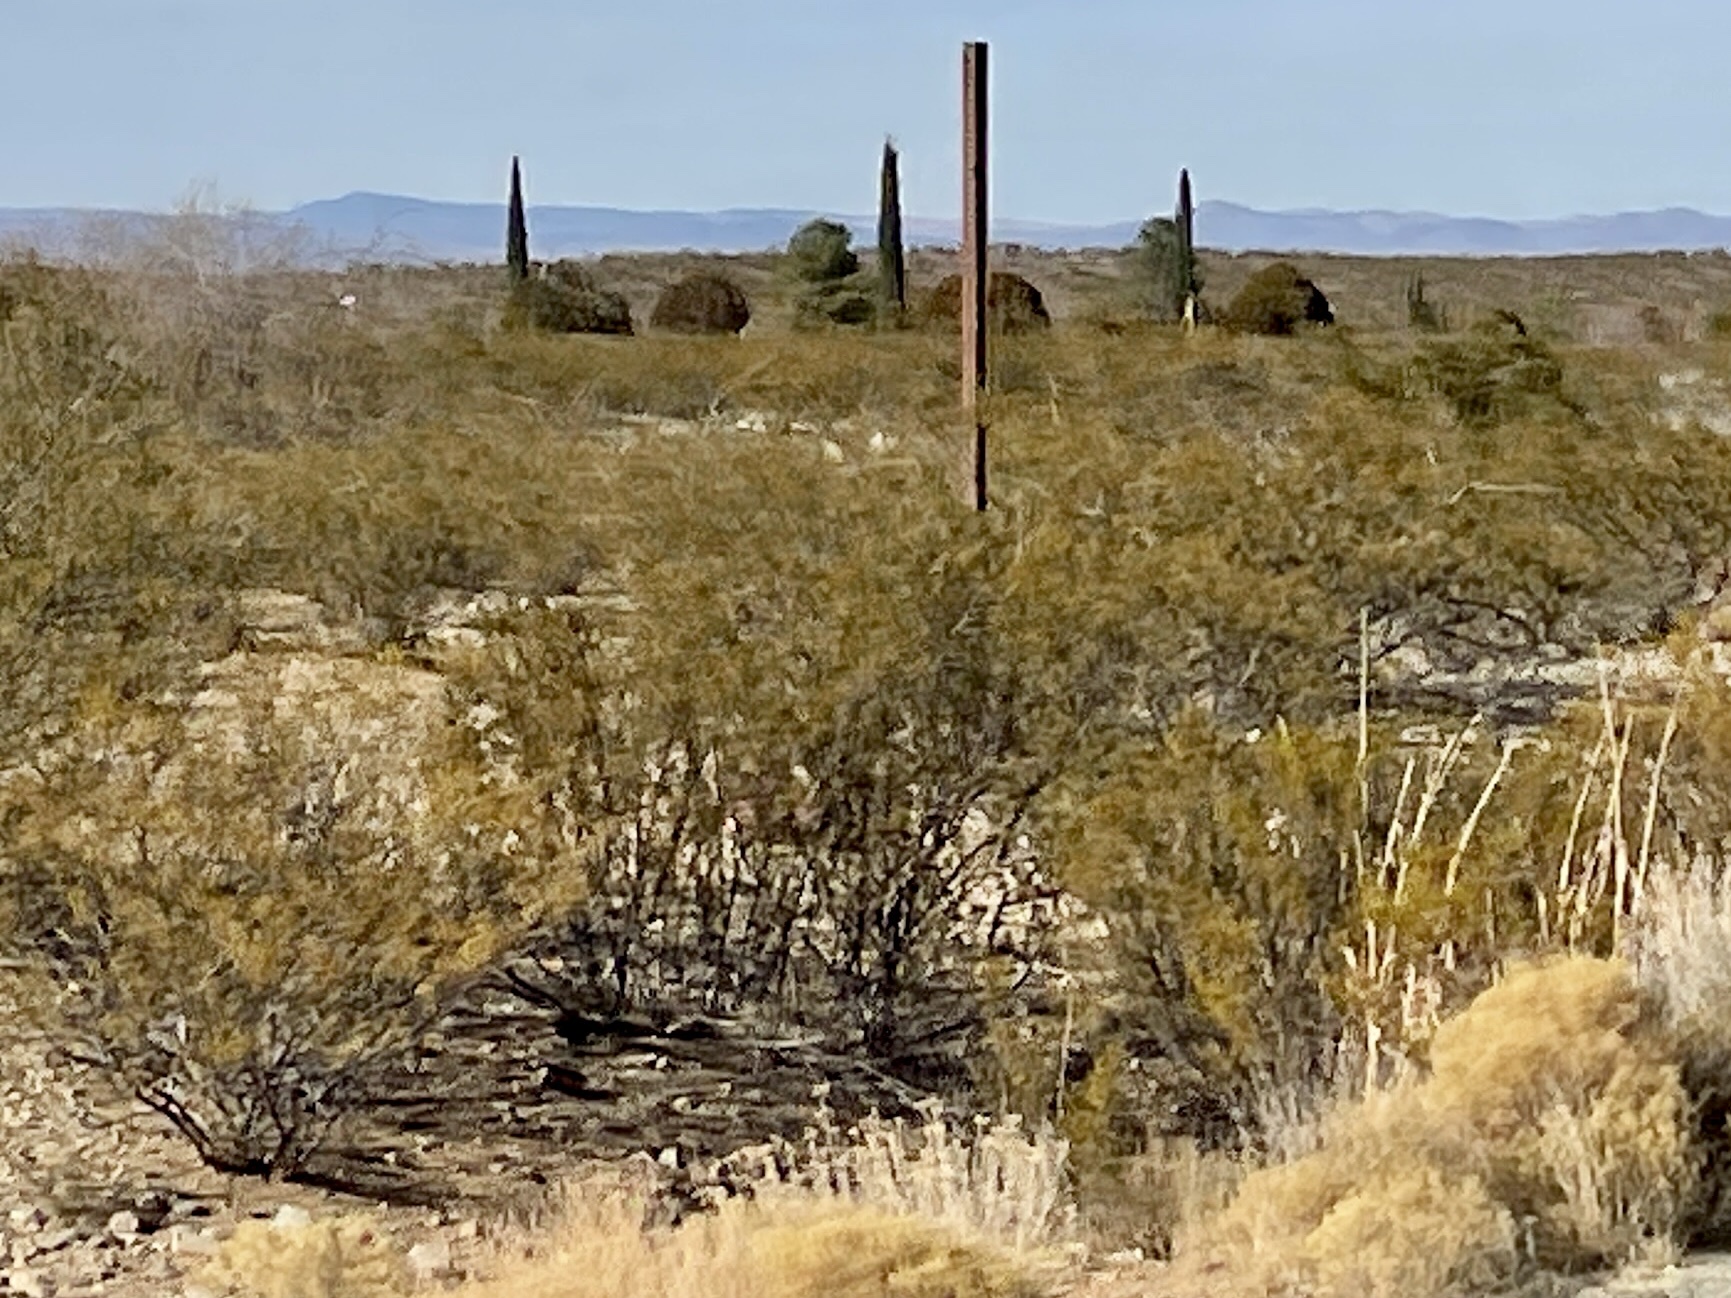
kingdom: Plantae
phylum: Tracheophyta
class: Magnoliopsida
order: Zygophyllales
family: Zygophyllaceae
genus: Larrea
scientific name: Larrea tridentata
